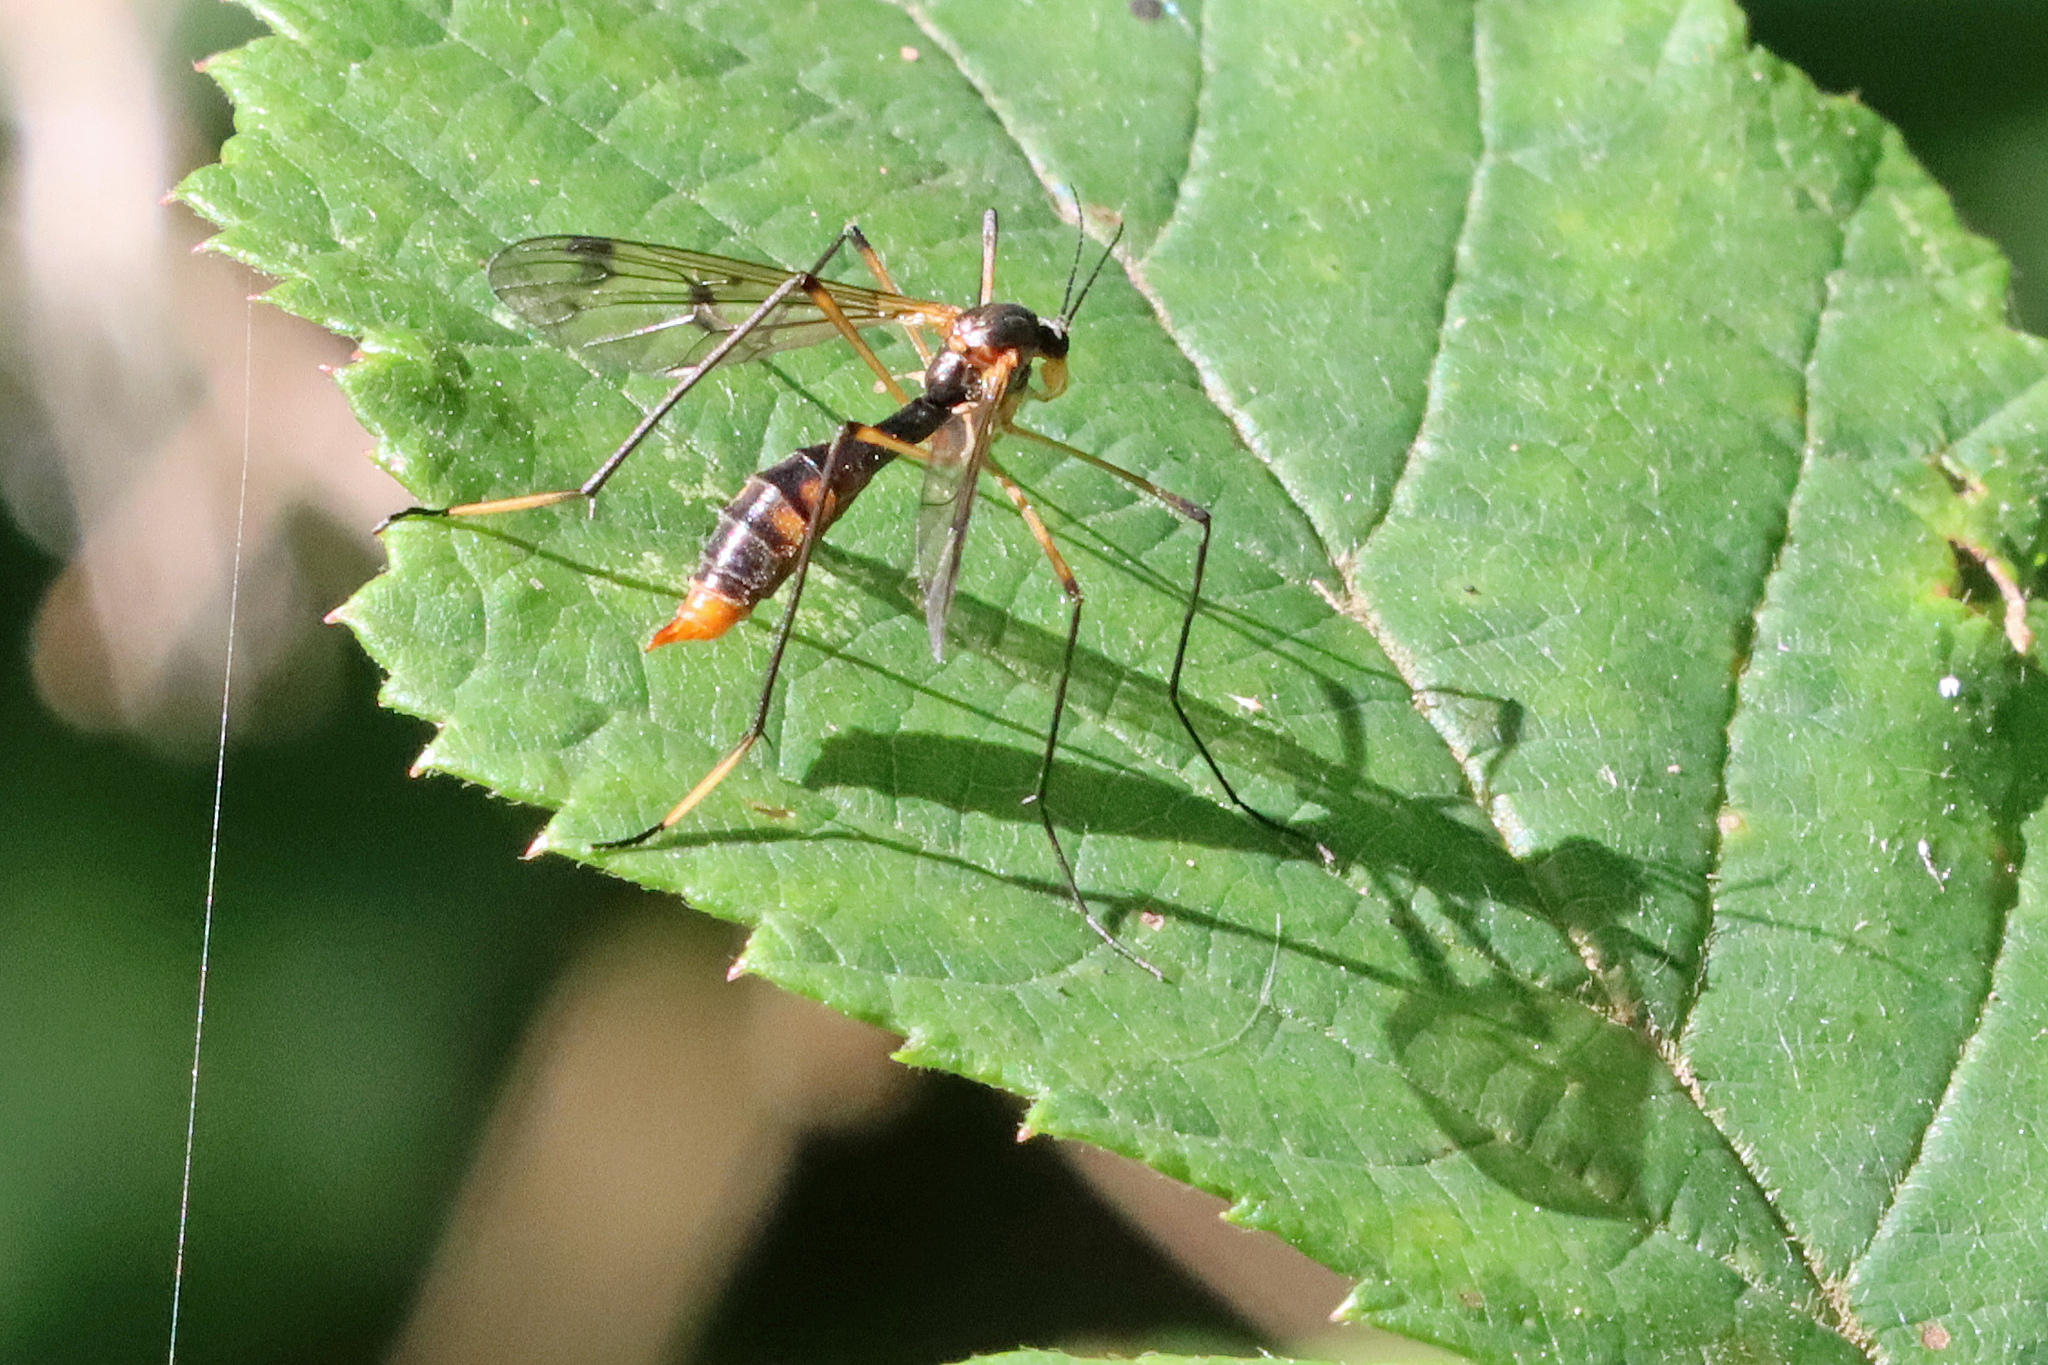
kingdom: Animalia
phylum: Arthropoda
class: Insecta
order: Diptera
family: Ptychopteridae
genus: Ptychoptera
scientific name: Ptychoptera albimanus
